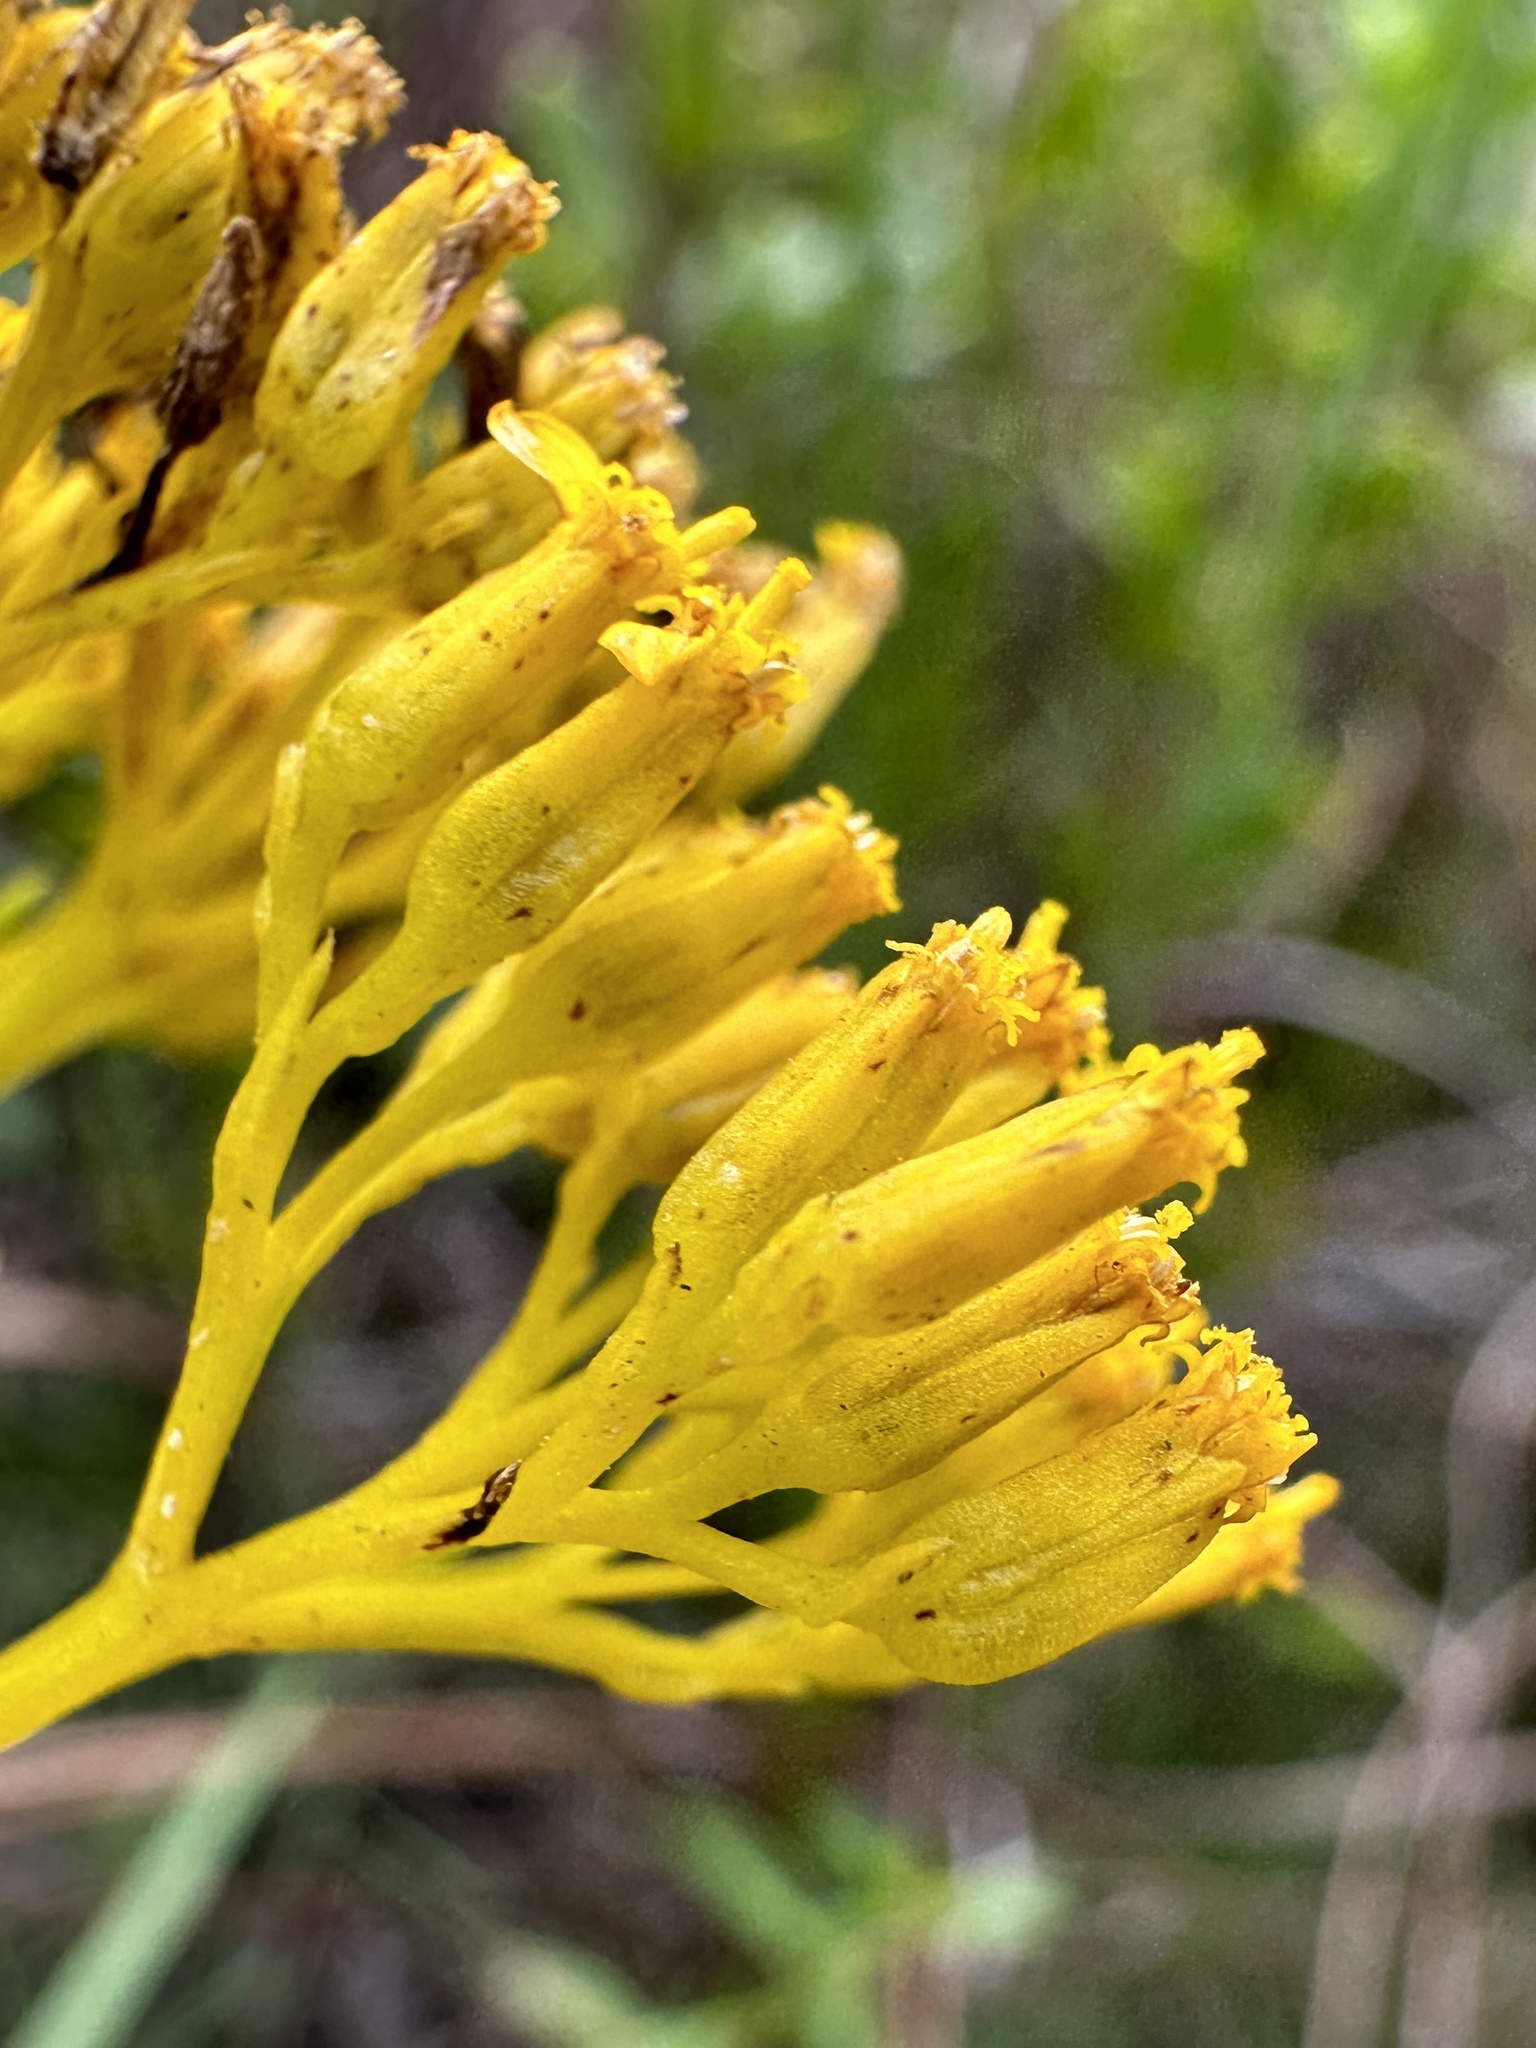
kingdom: Plantae
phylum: Tracheophyta
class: Magnoliopsida
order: Asterales
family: Asteraceae
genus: Flaveria
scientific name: Flaveria linearis
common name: Yellowtop
